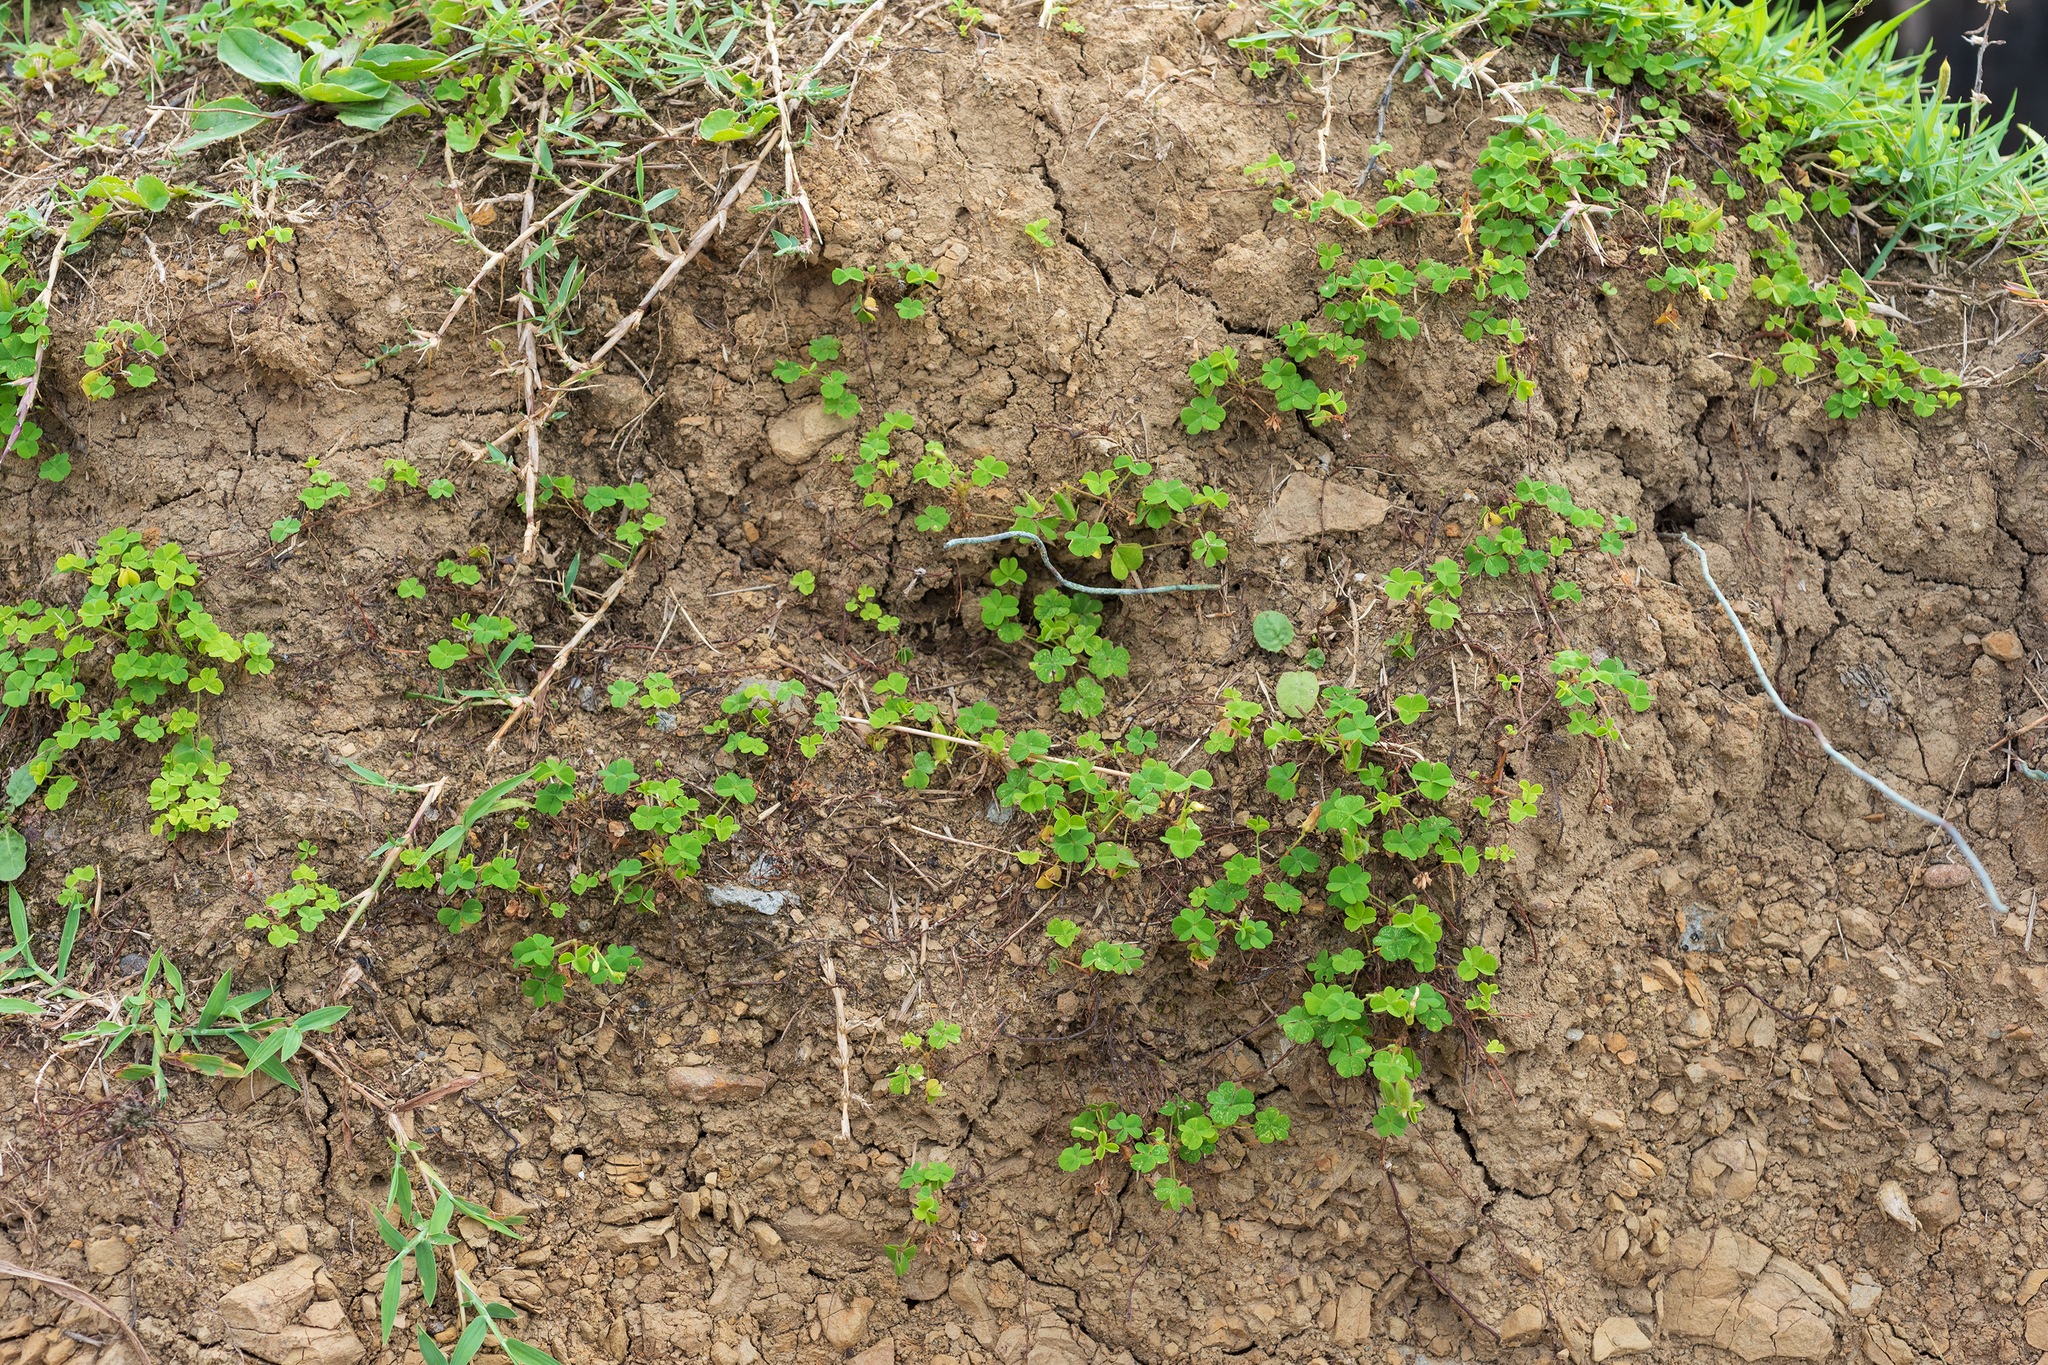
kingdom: Plantae
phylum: Tracheophyta
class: Magnoliopsida
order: Oxalidales
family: Oxalidaceae
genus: Oxalis
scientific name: Oxalis corniculata
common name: Procumbent yellow-sorrel
